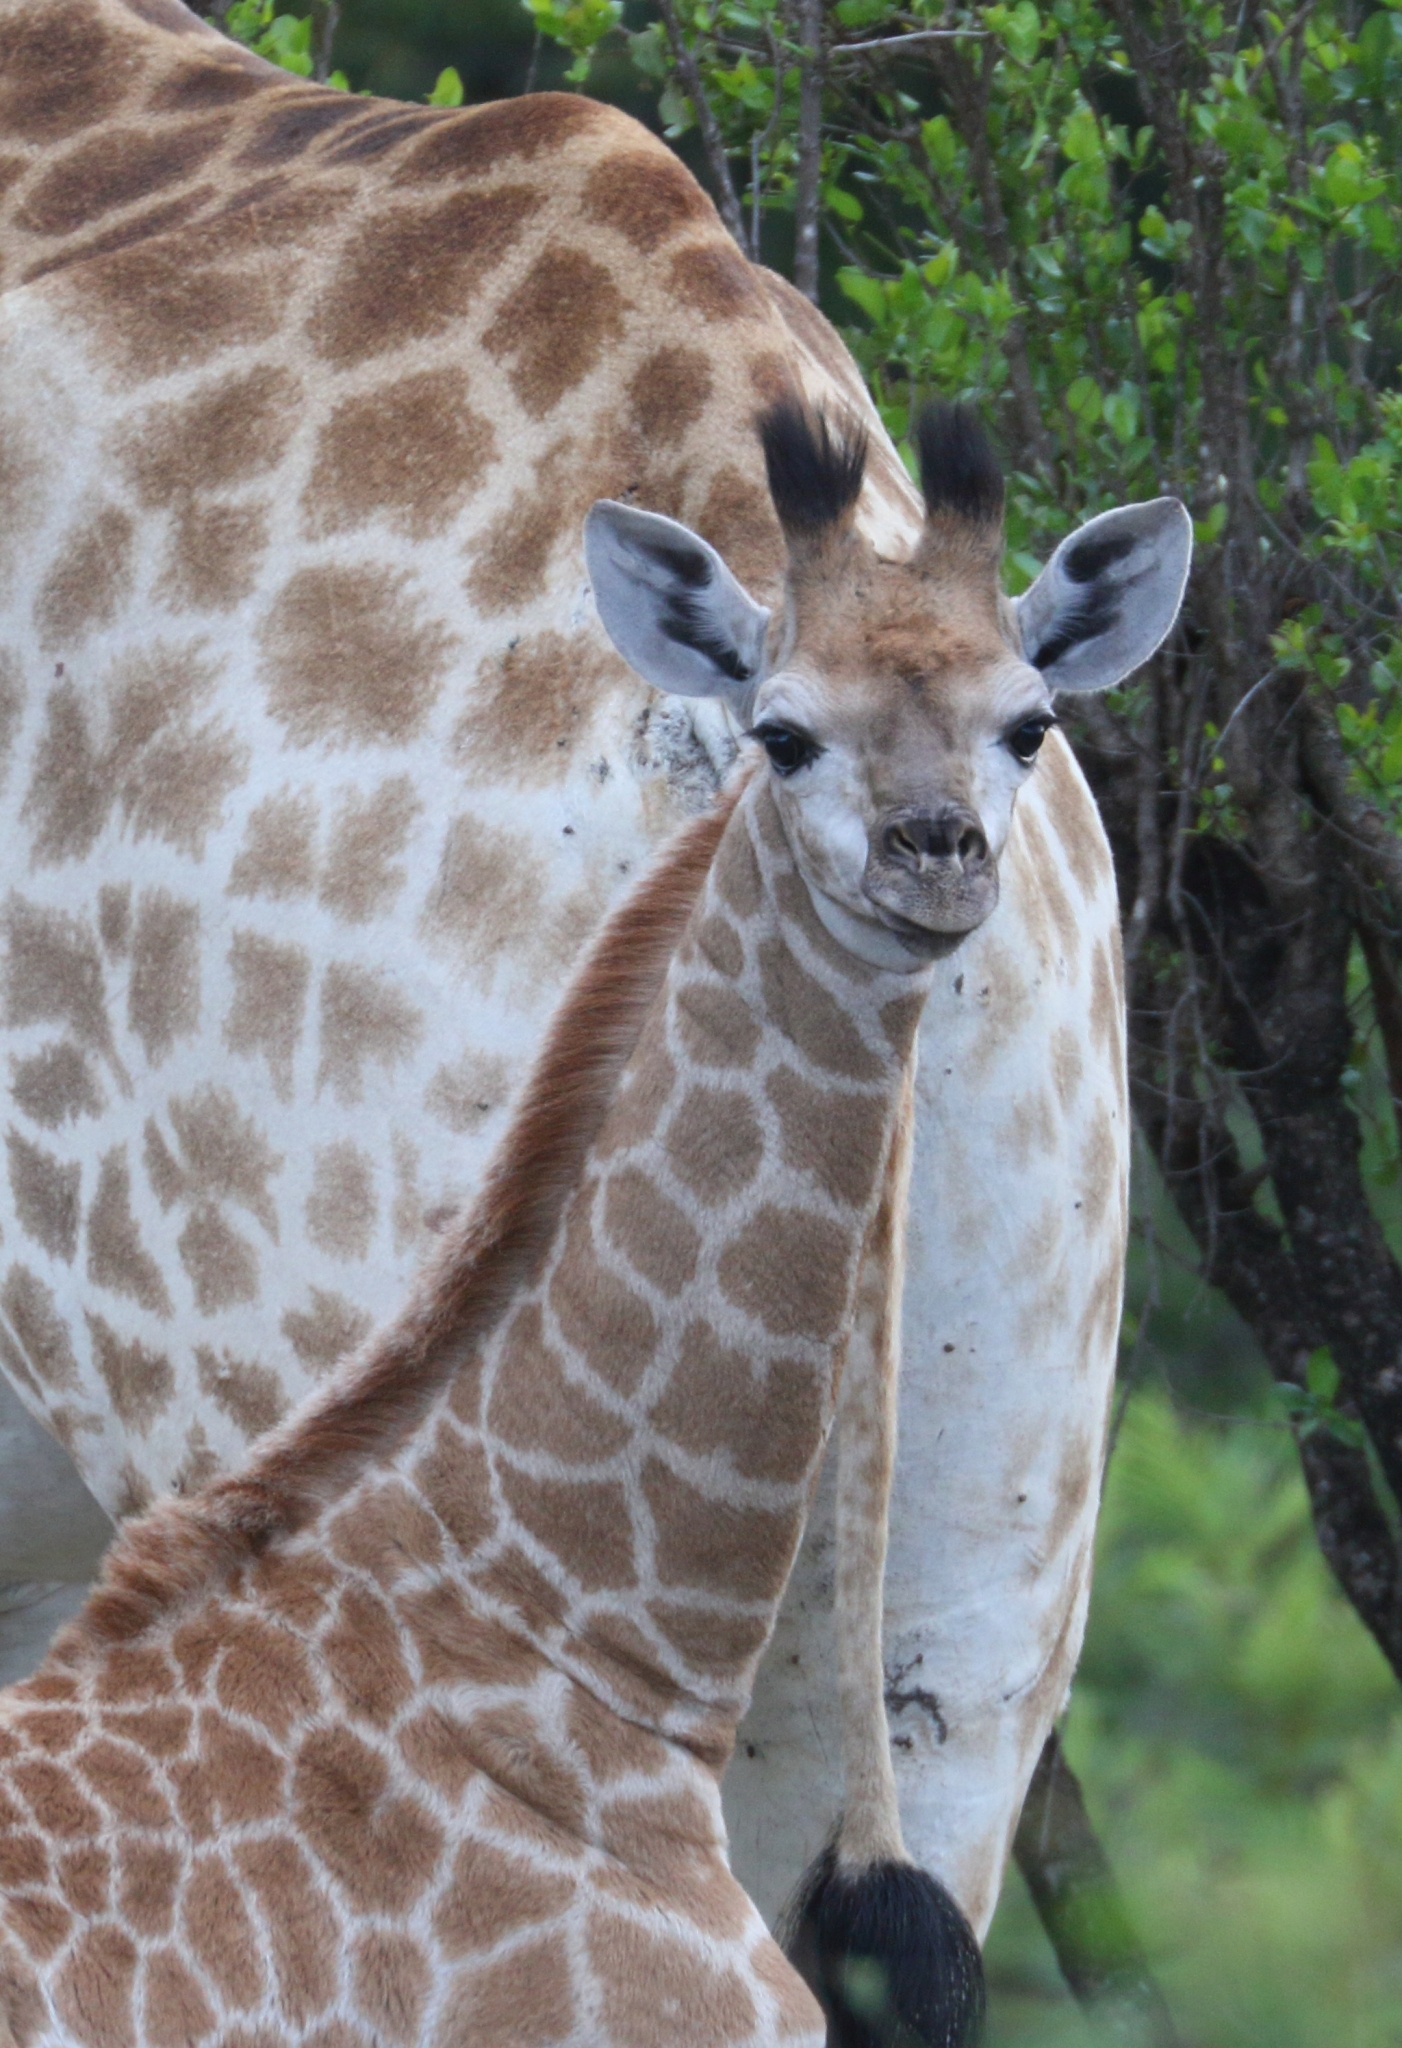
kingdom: Animalia
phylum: Chordata
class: Mammalia
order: Artiodactyla
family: Giraffidae
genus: Giraffa
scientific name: Giraffa giraffa
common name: Southern giraffe
